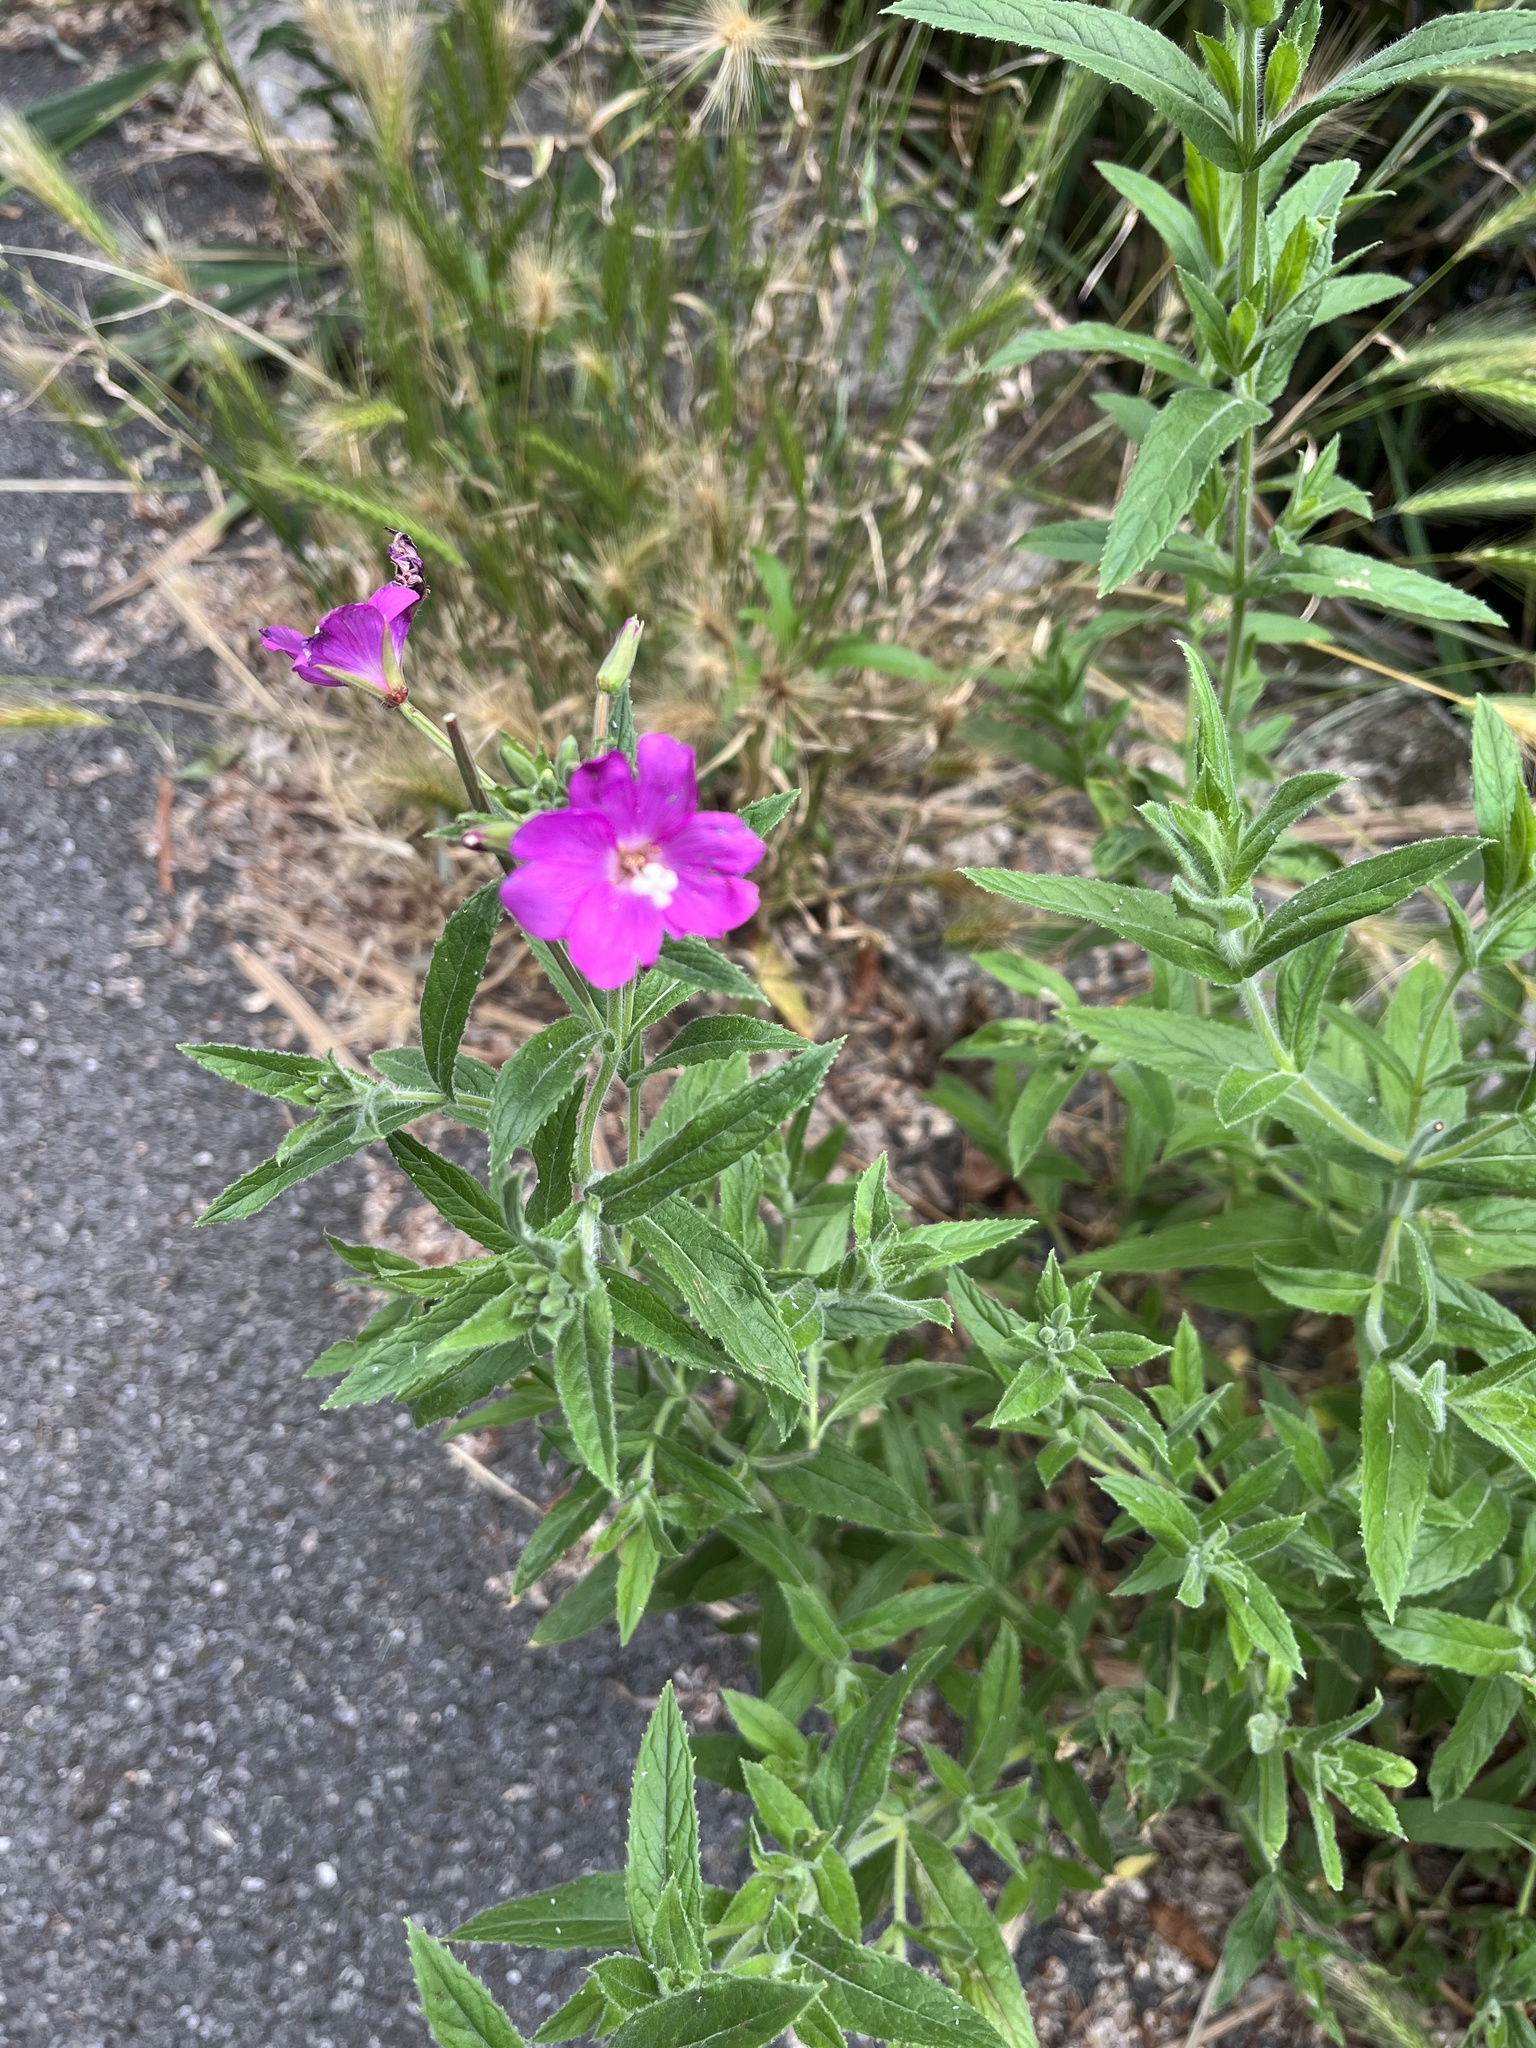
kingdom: Plantae
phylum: Tracheophyta
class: Magnoliopsida
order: Myrtales
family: Onagraceae
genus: Epilobium
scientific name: Epilobium hirsutum
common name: Great willowherb
